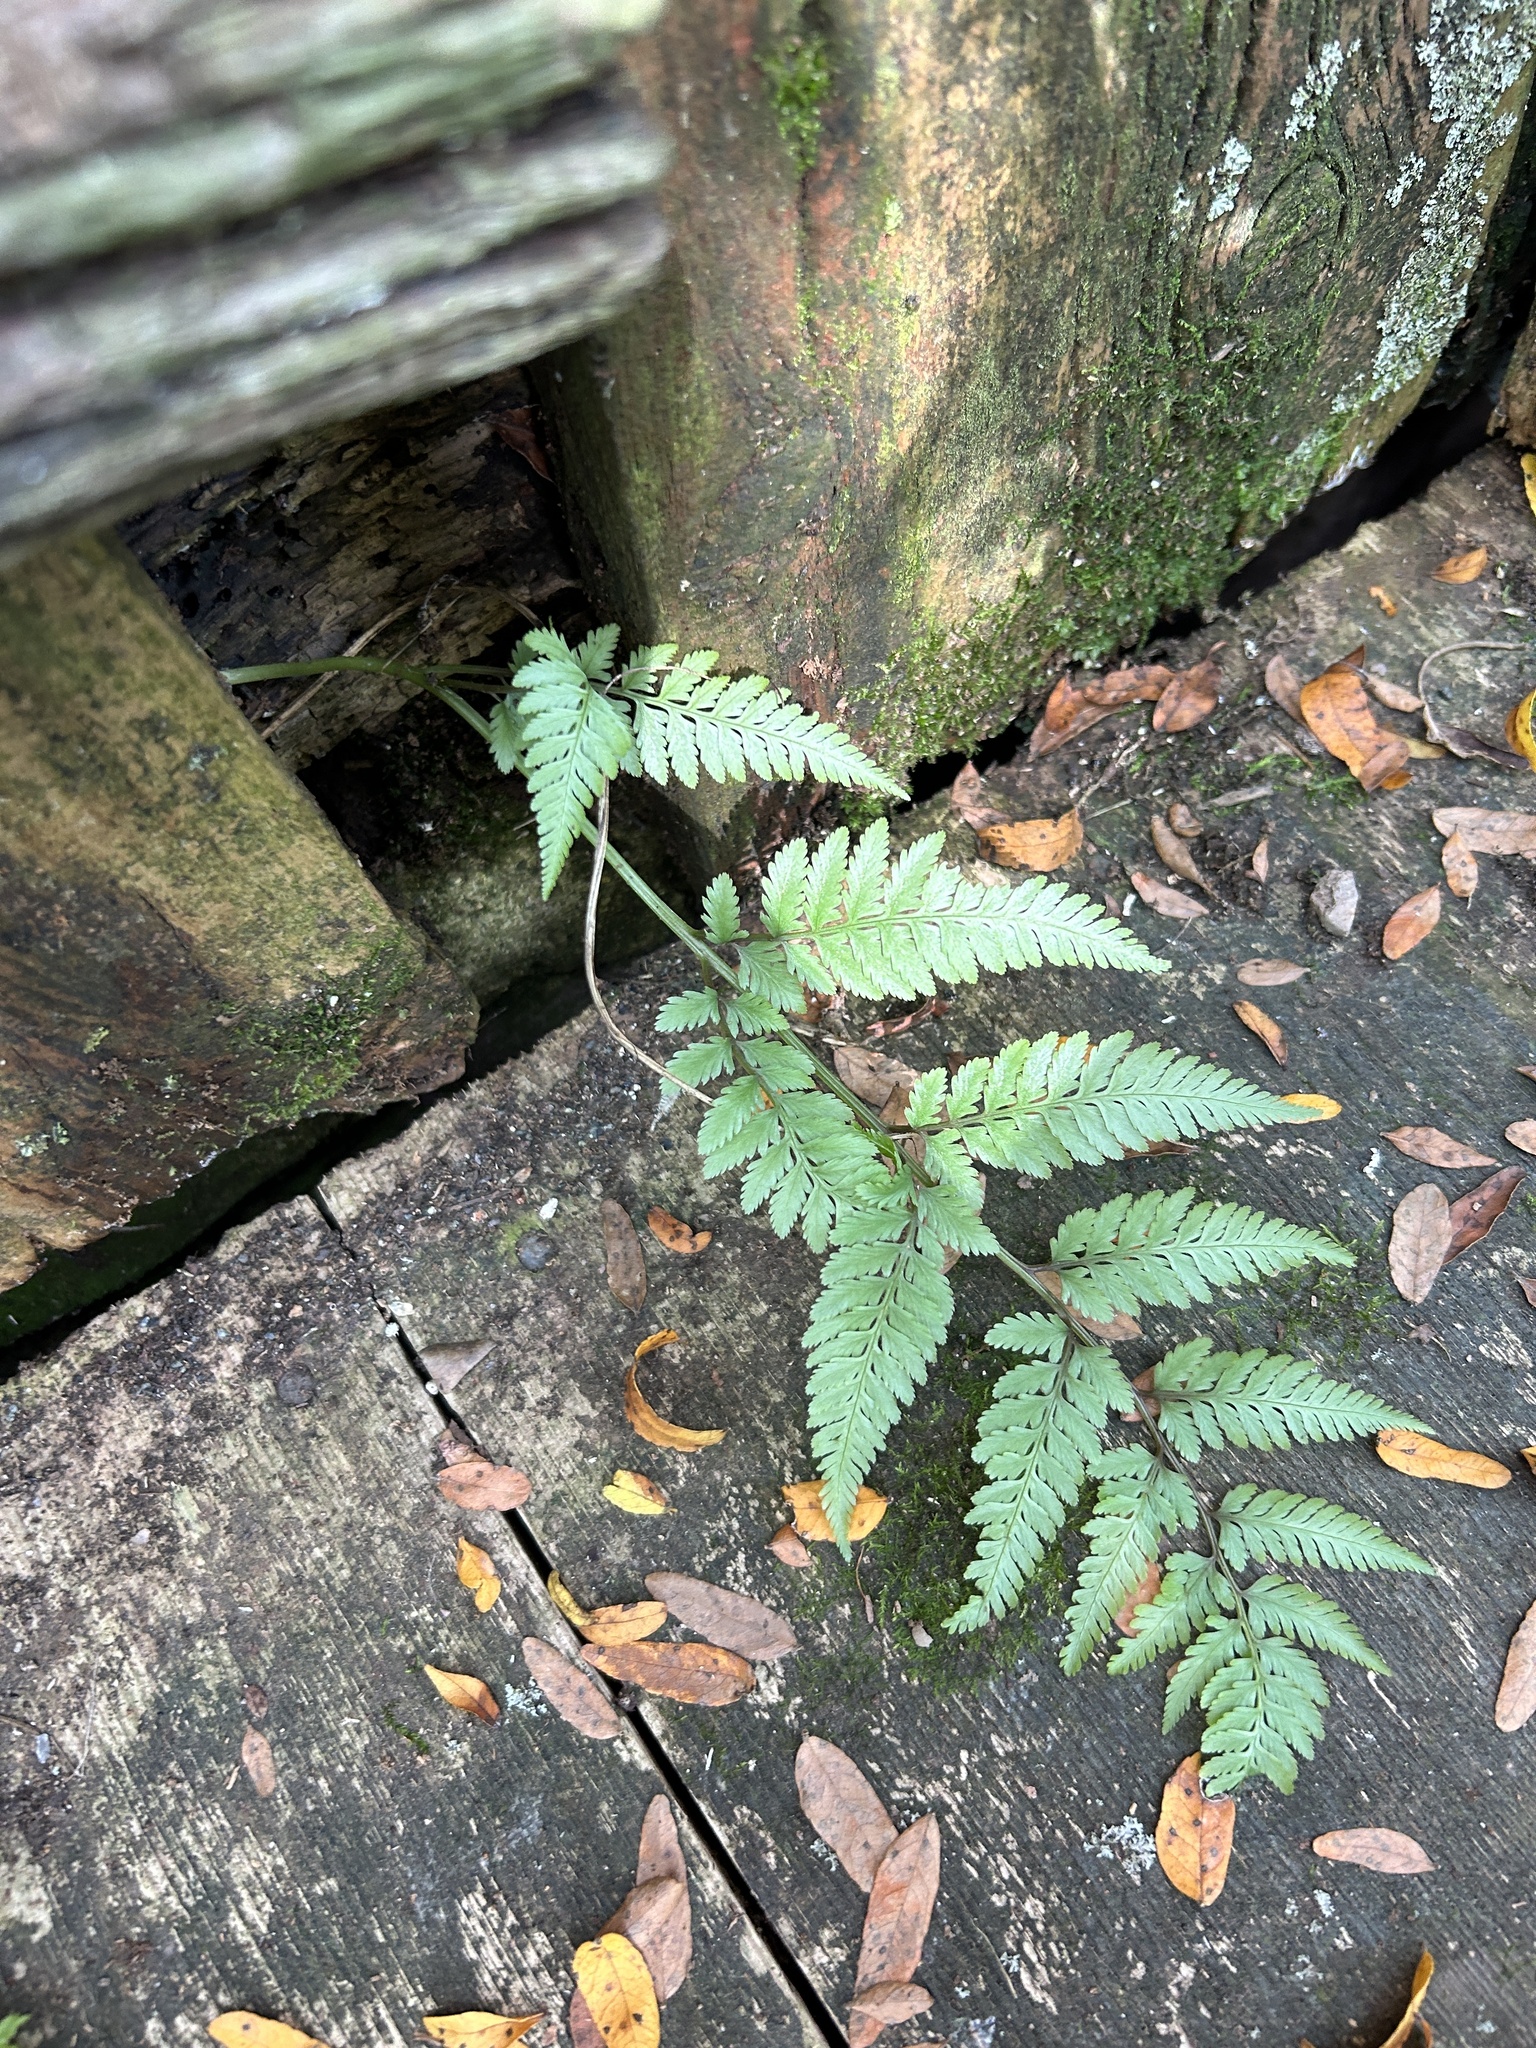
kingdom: Plantae
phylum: Tracheophyta
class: Polypodiopsida
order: Polypodiales
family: Athyriaceae
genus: Anisocampium
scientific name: Anisocampium niponicum
